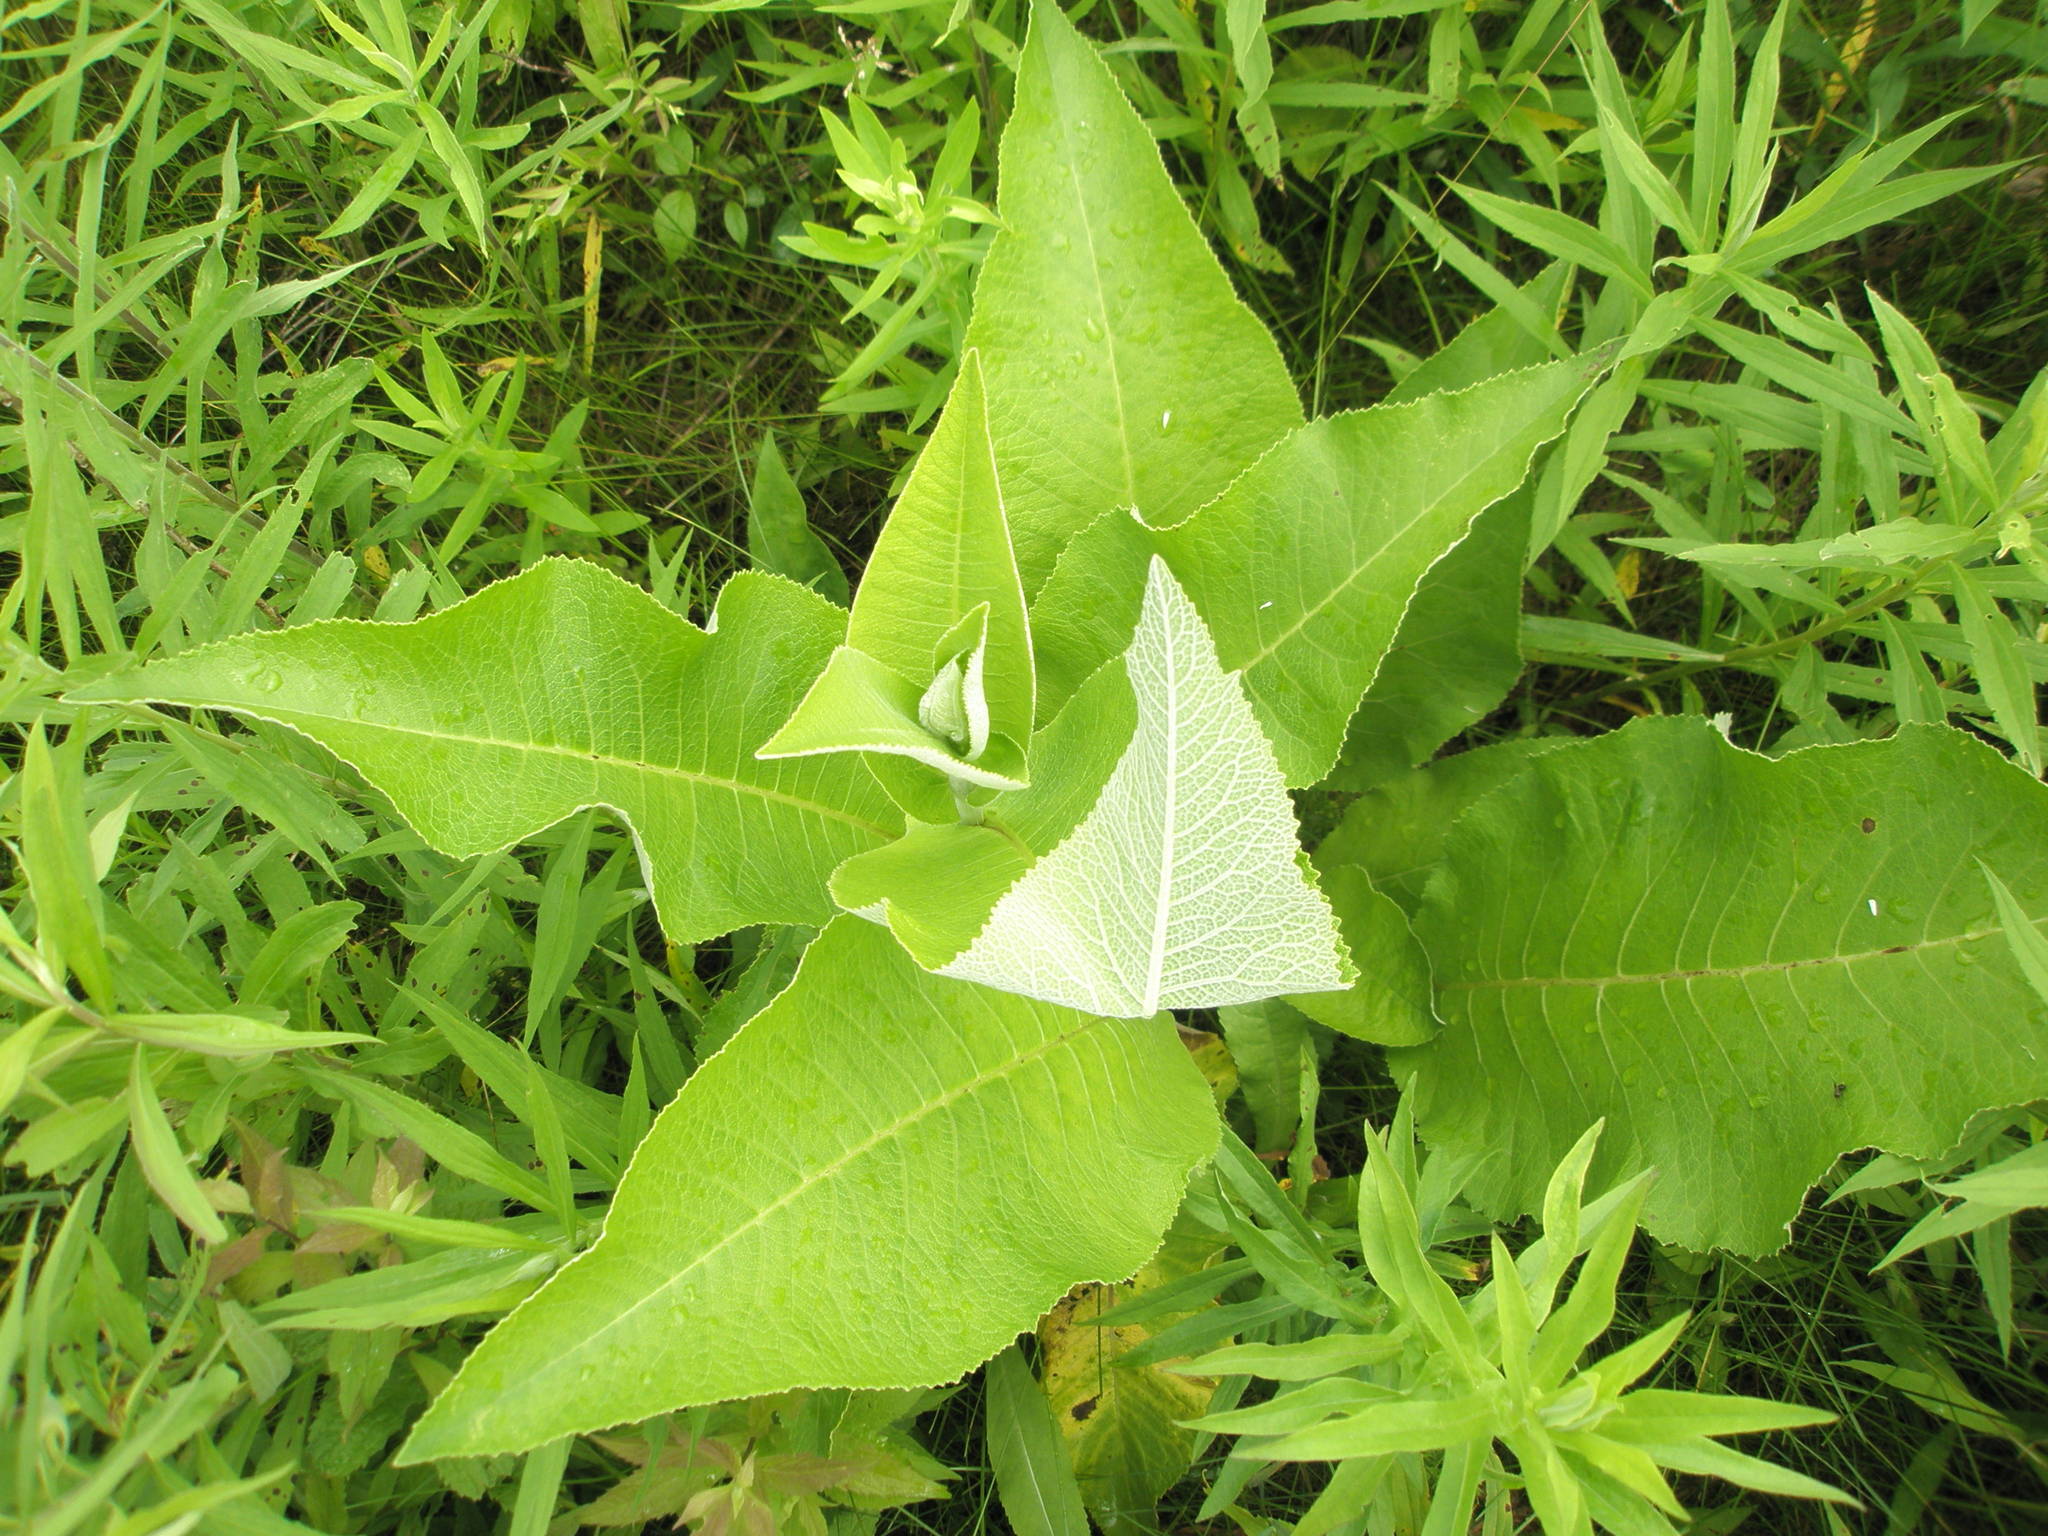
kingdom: Plantae
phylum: Tracheophyta
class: Magnoliopsida
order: Asterales
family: Asteraceae
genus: Inula
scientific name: Inula helenium
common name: Elecampane
